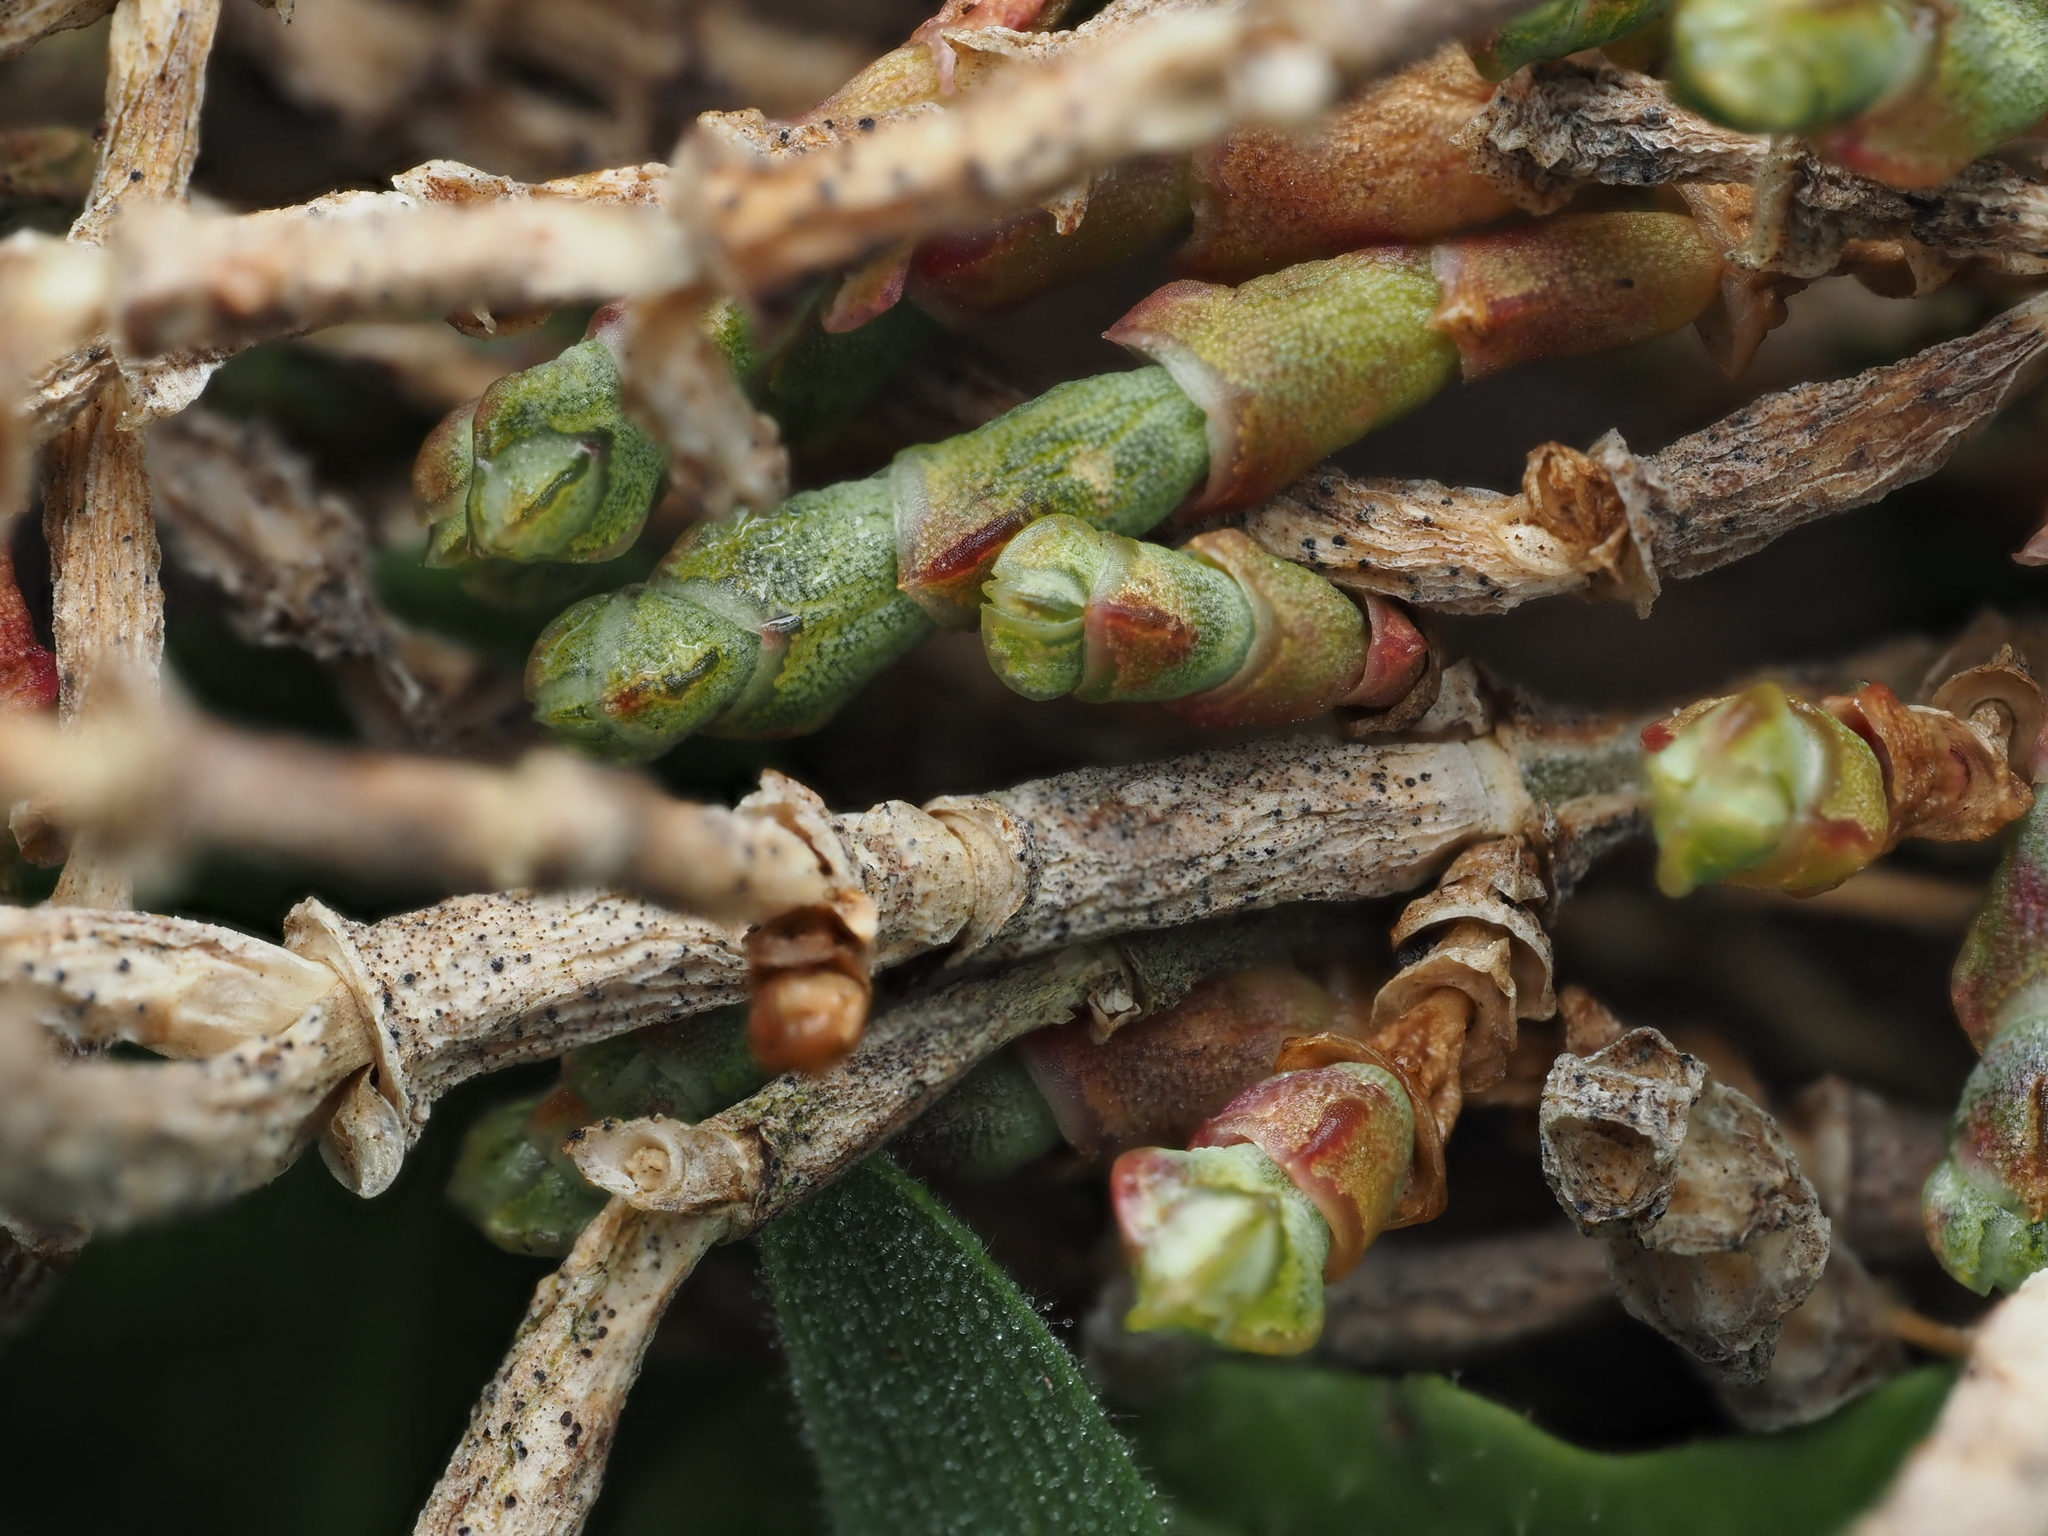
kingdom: Plantae
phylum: Tracheophyta
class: Magnoliopsida
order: Caryophyllales
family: Amaranthaceae
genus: Salicornia
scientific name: Salicornia quinqueflora
